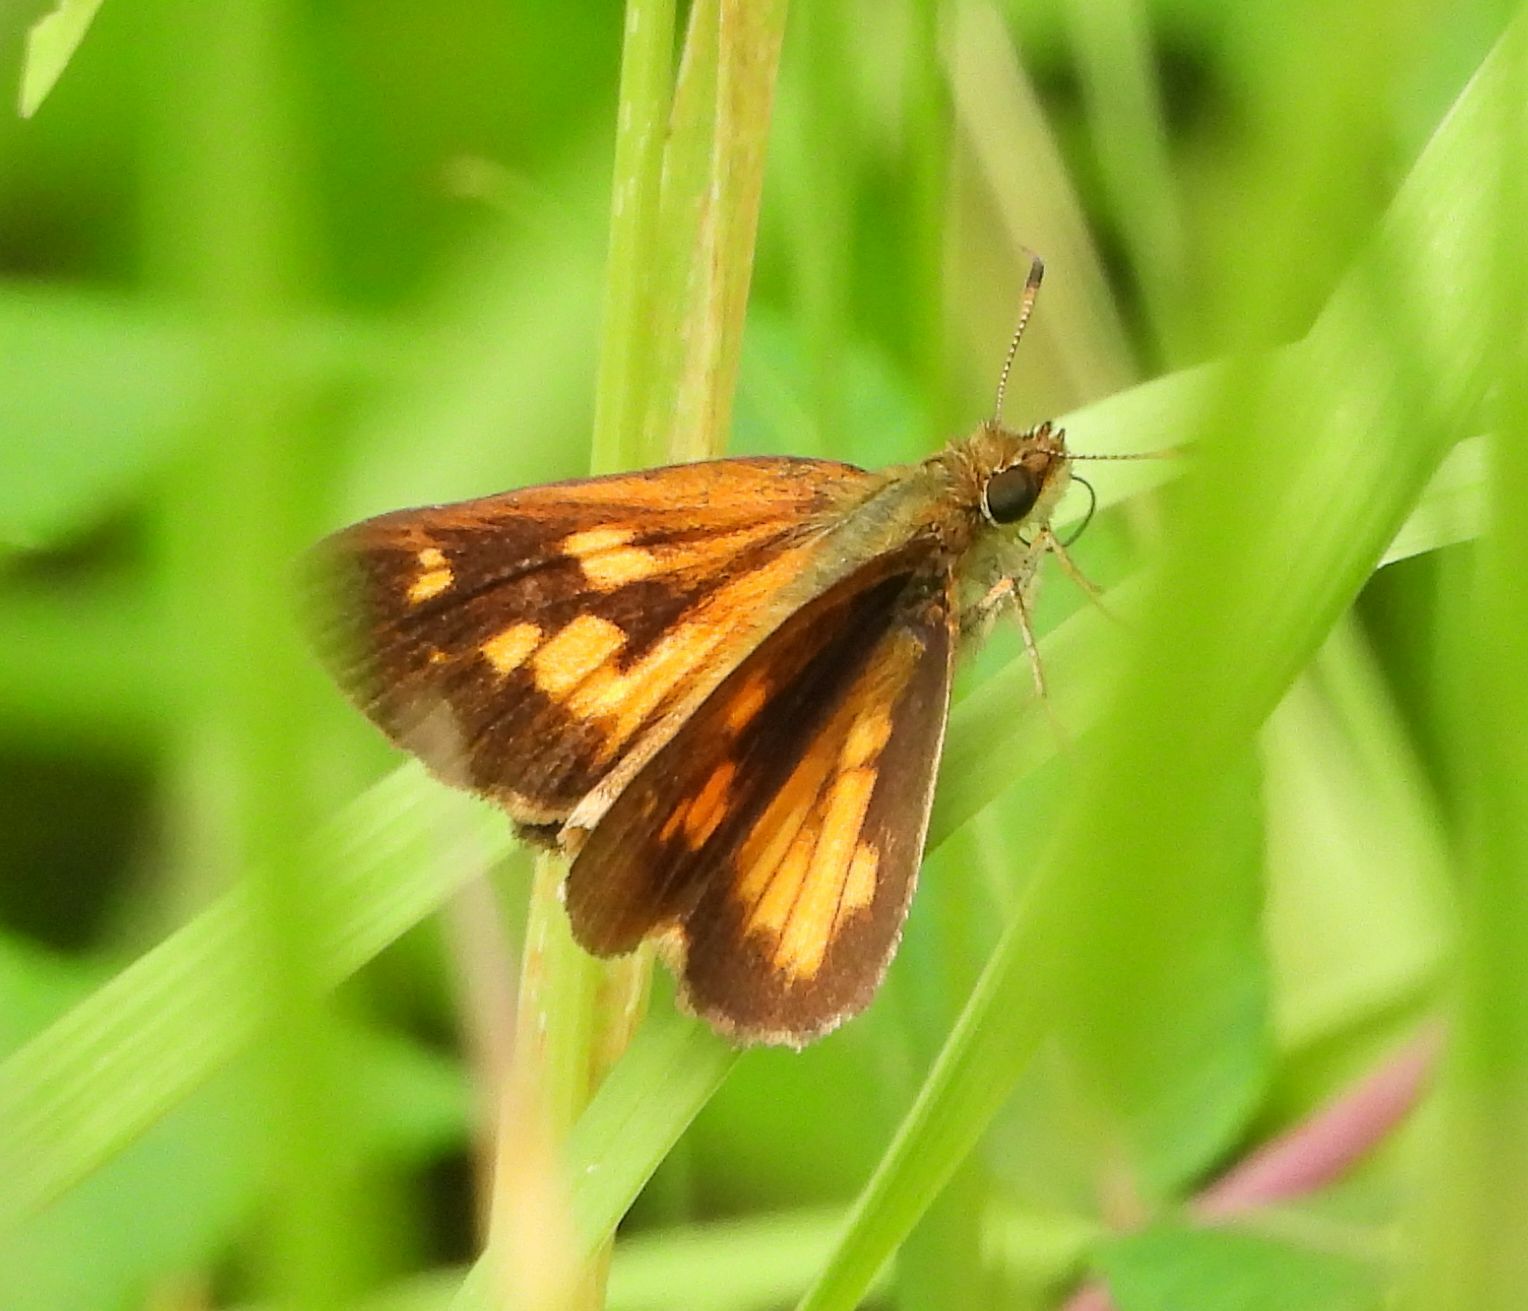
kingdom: Animalia
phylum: Arthropoda
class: Insecta
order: Lepidoptera
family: Hesperiidae
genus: Poanes
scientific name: Poanes viator
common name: Broad-winged skipper
